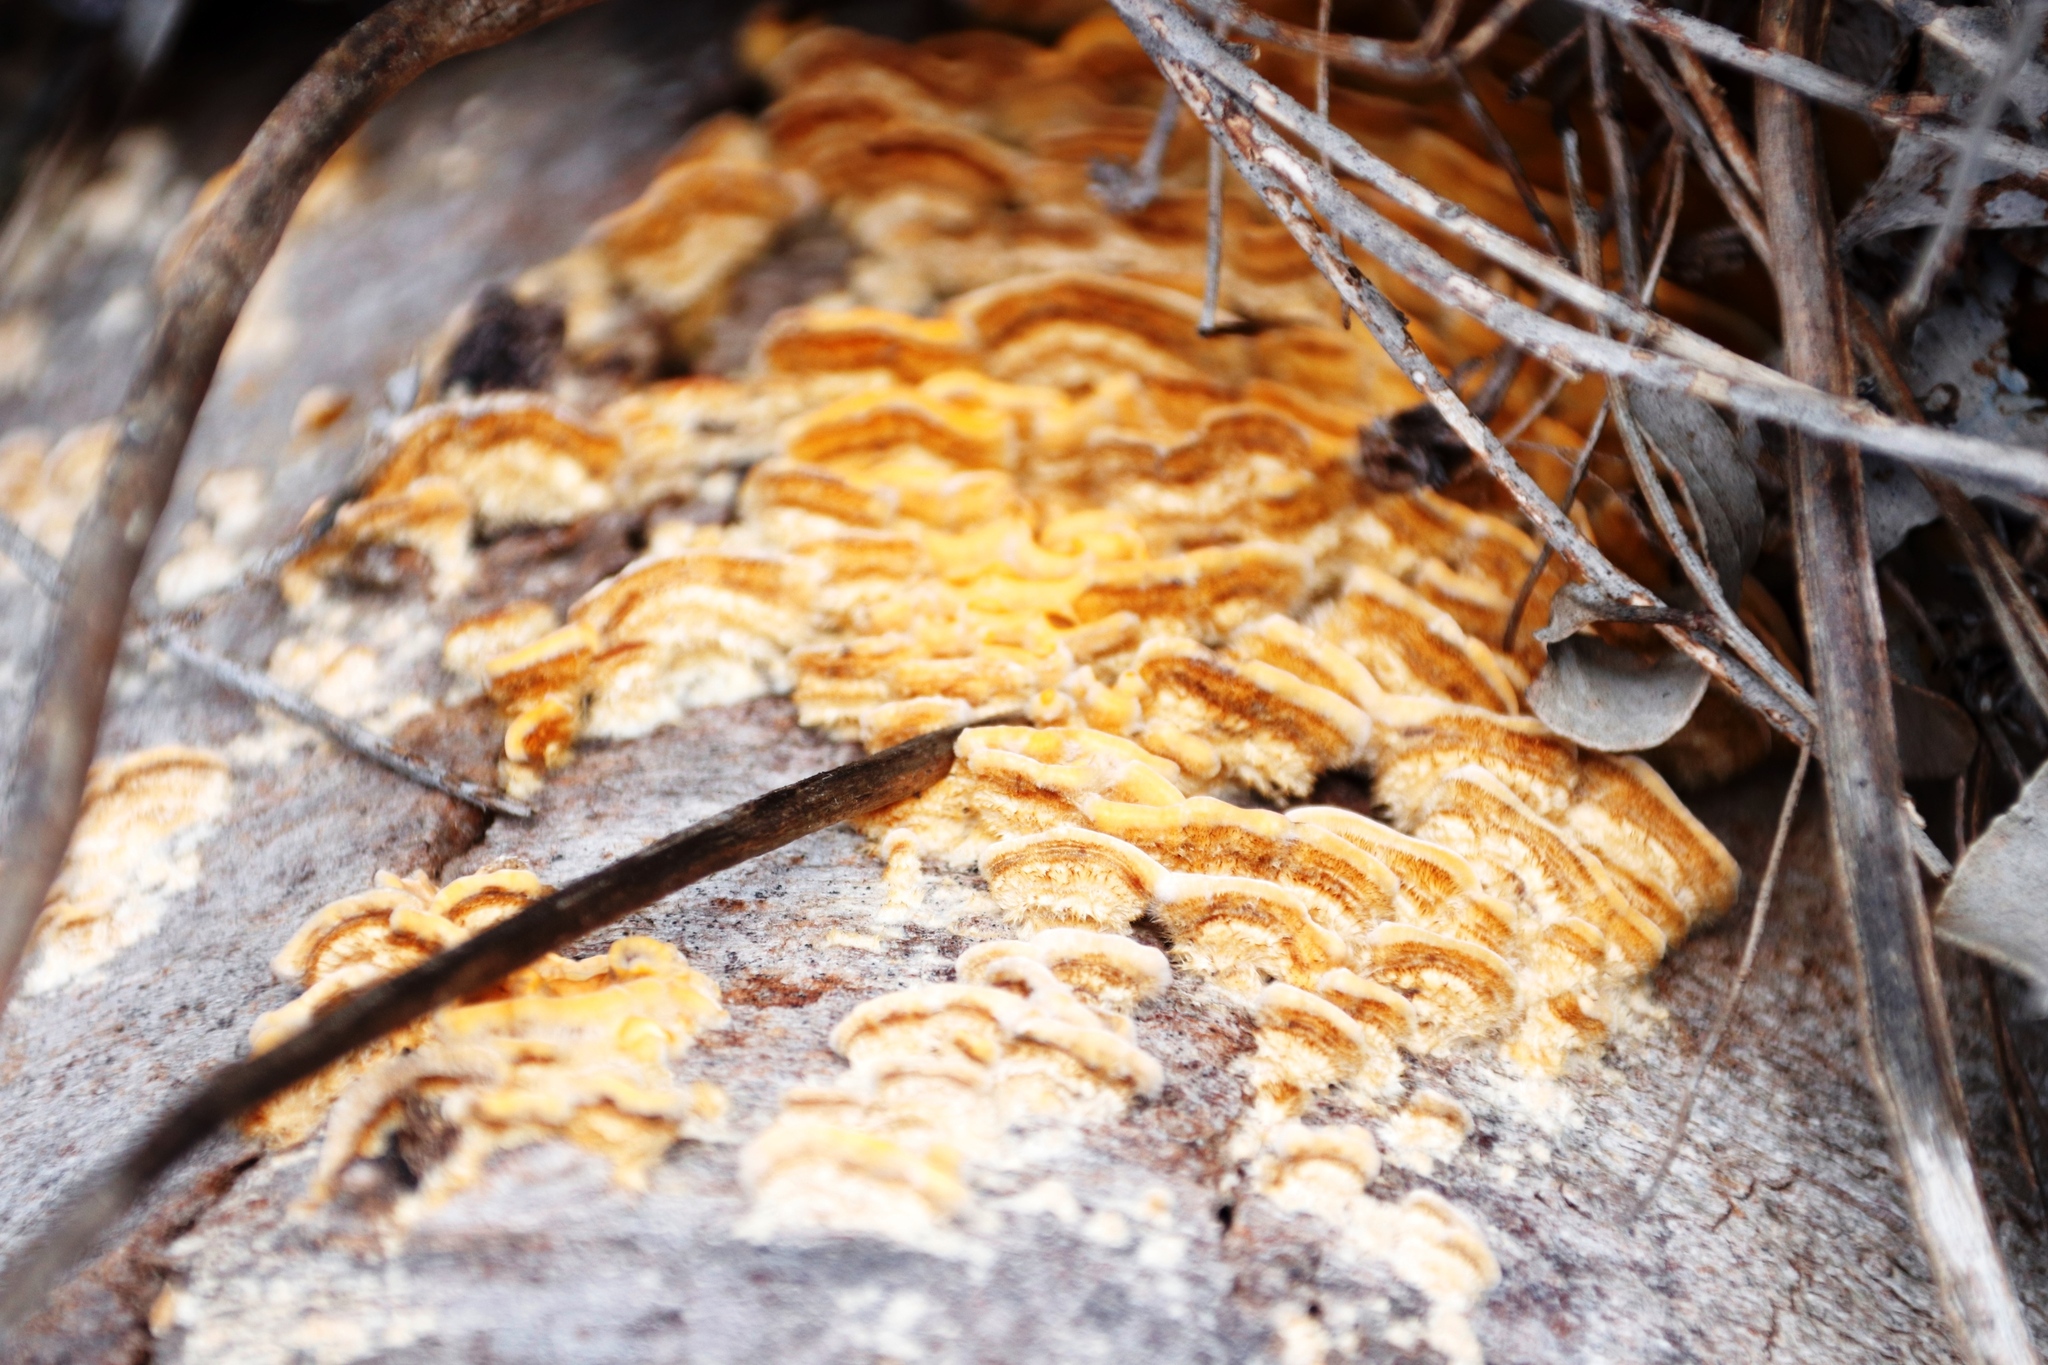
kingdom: Fungi
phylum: Basidiomycota
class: Agaricomycetes
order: Russulales
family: Stereaceae
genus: Stereum
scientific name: Stereum hirsutum
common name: Hairy curtain crust
